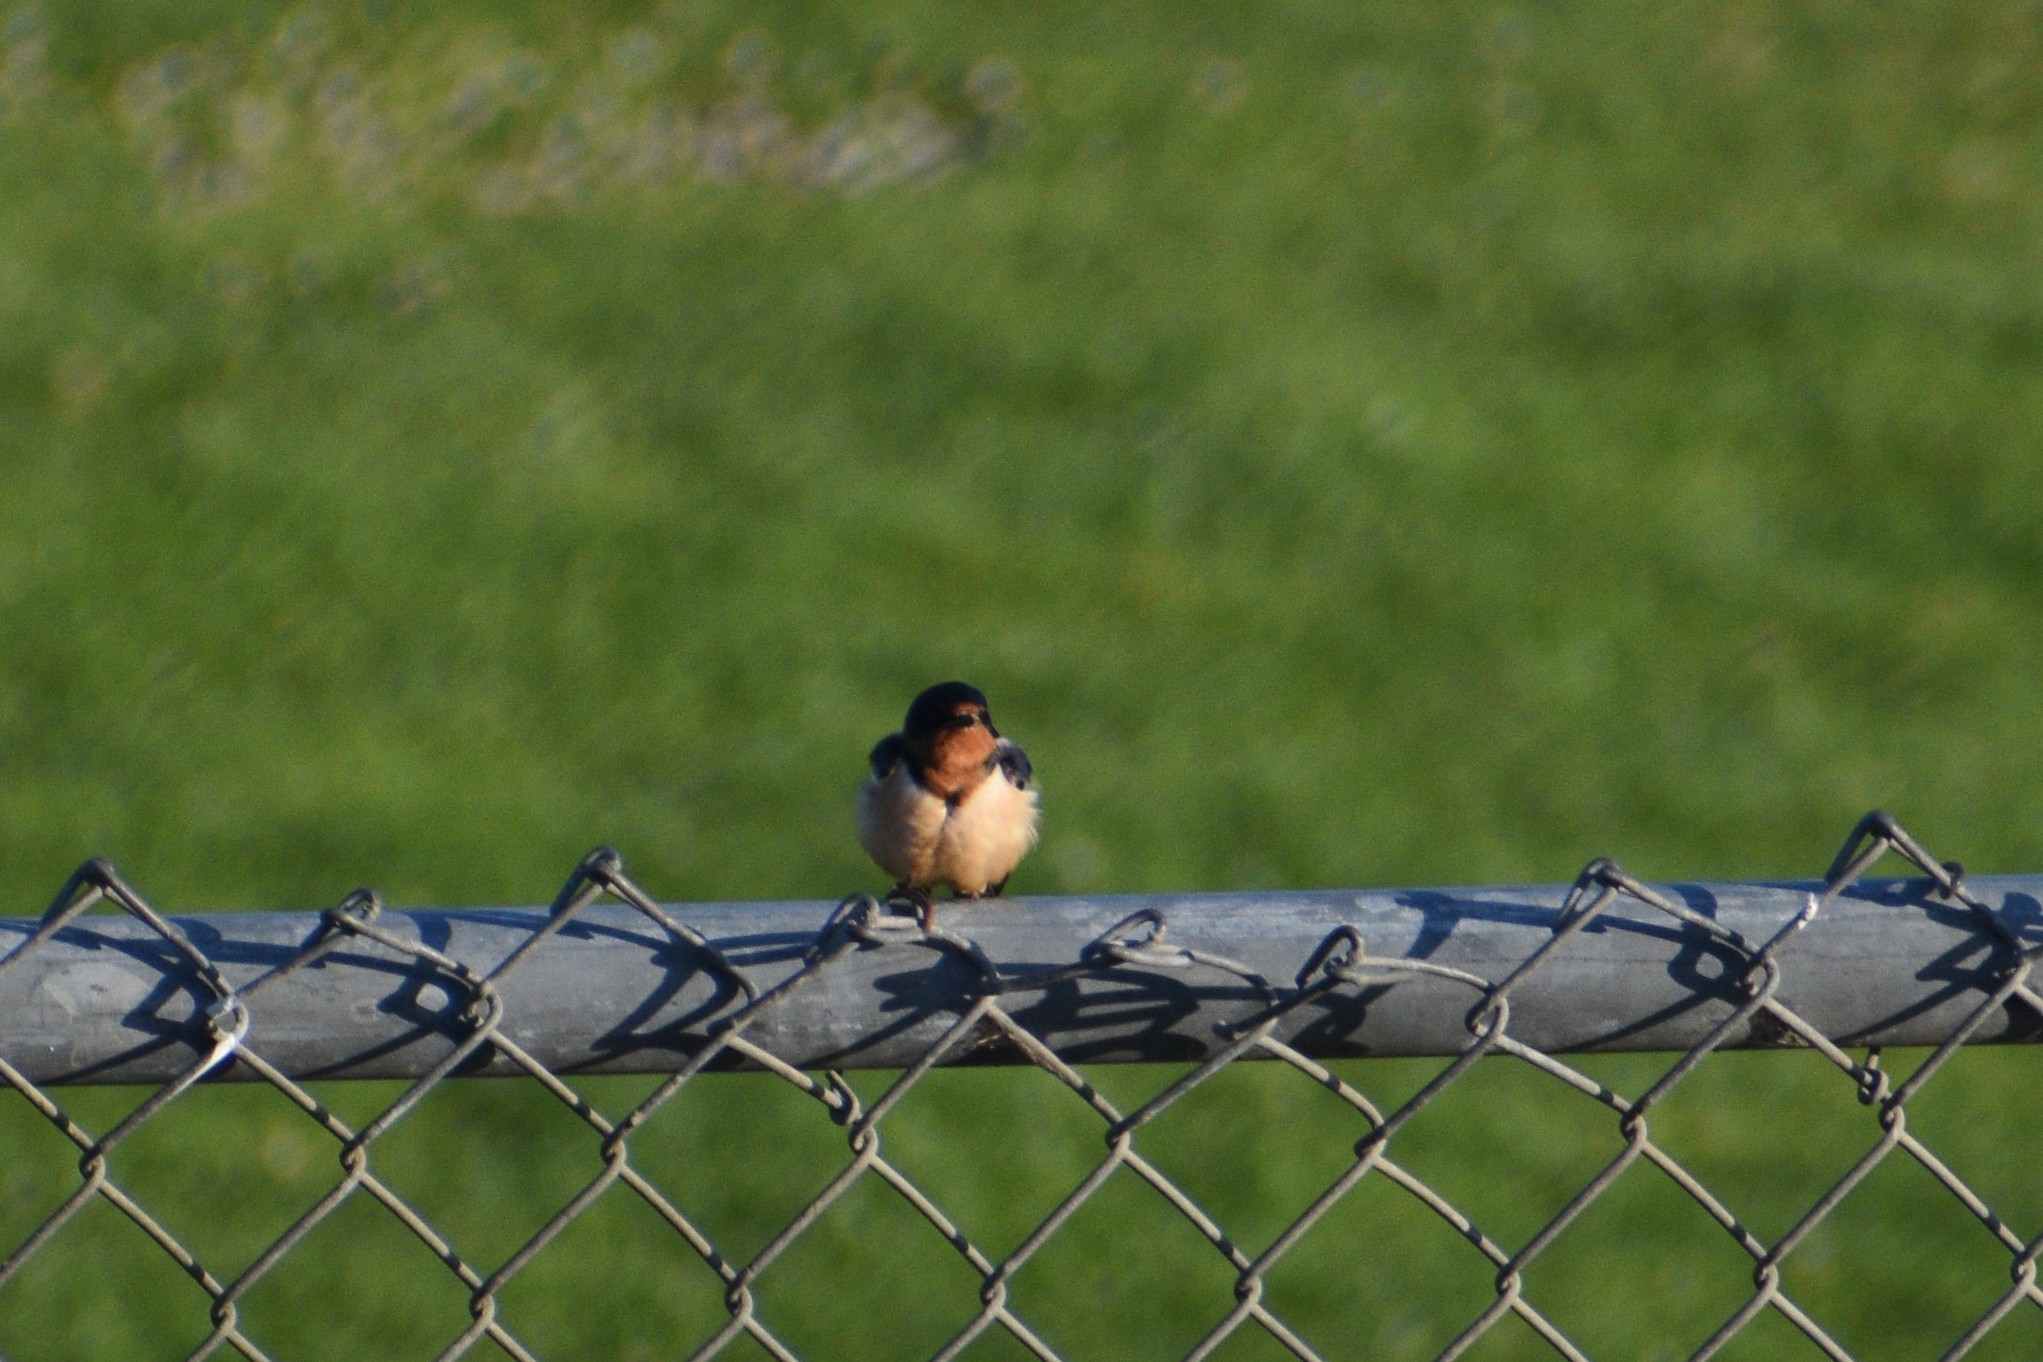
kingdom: Animalia
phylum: Chordata
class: Aves
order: Passeriformes
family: Hirundinidae
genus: Hirundo
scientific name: Hirundo rustica
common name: Barn swallow
